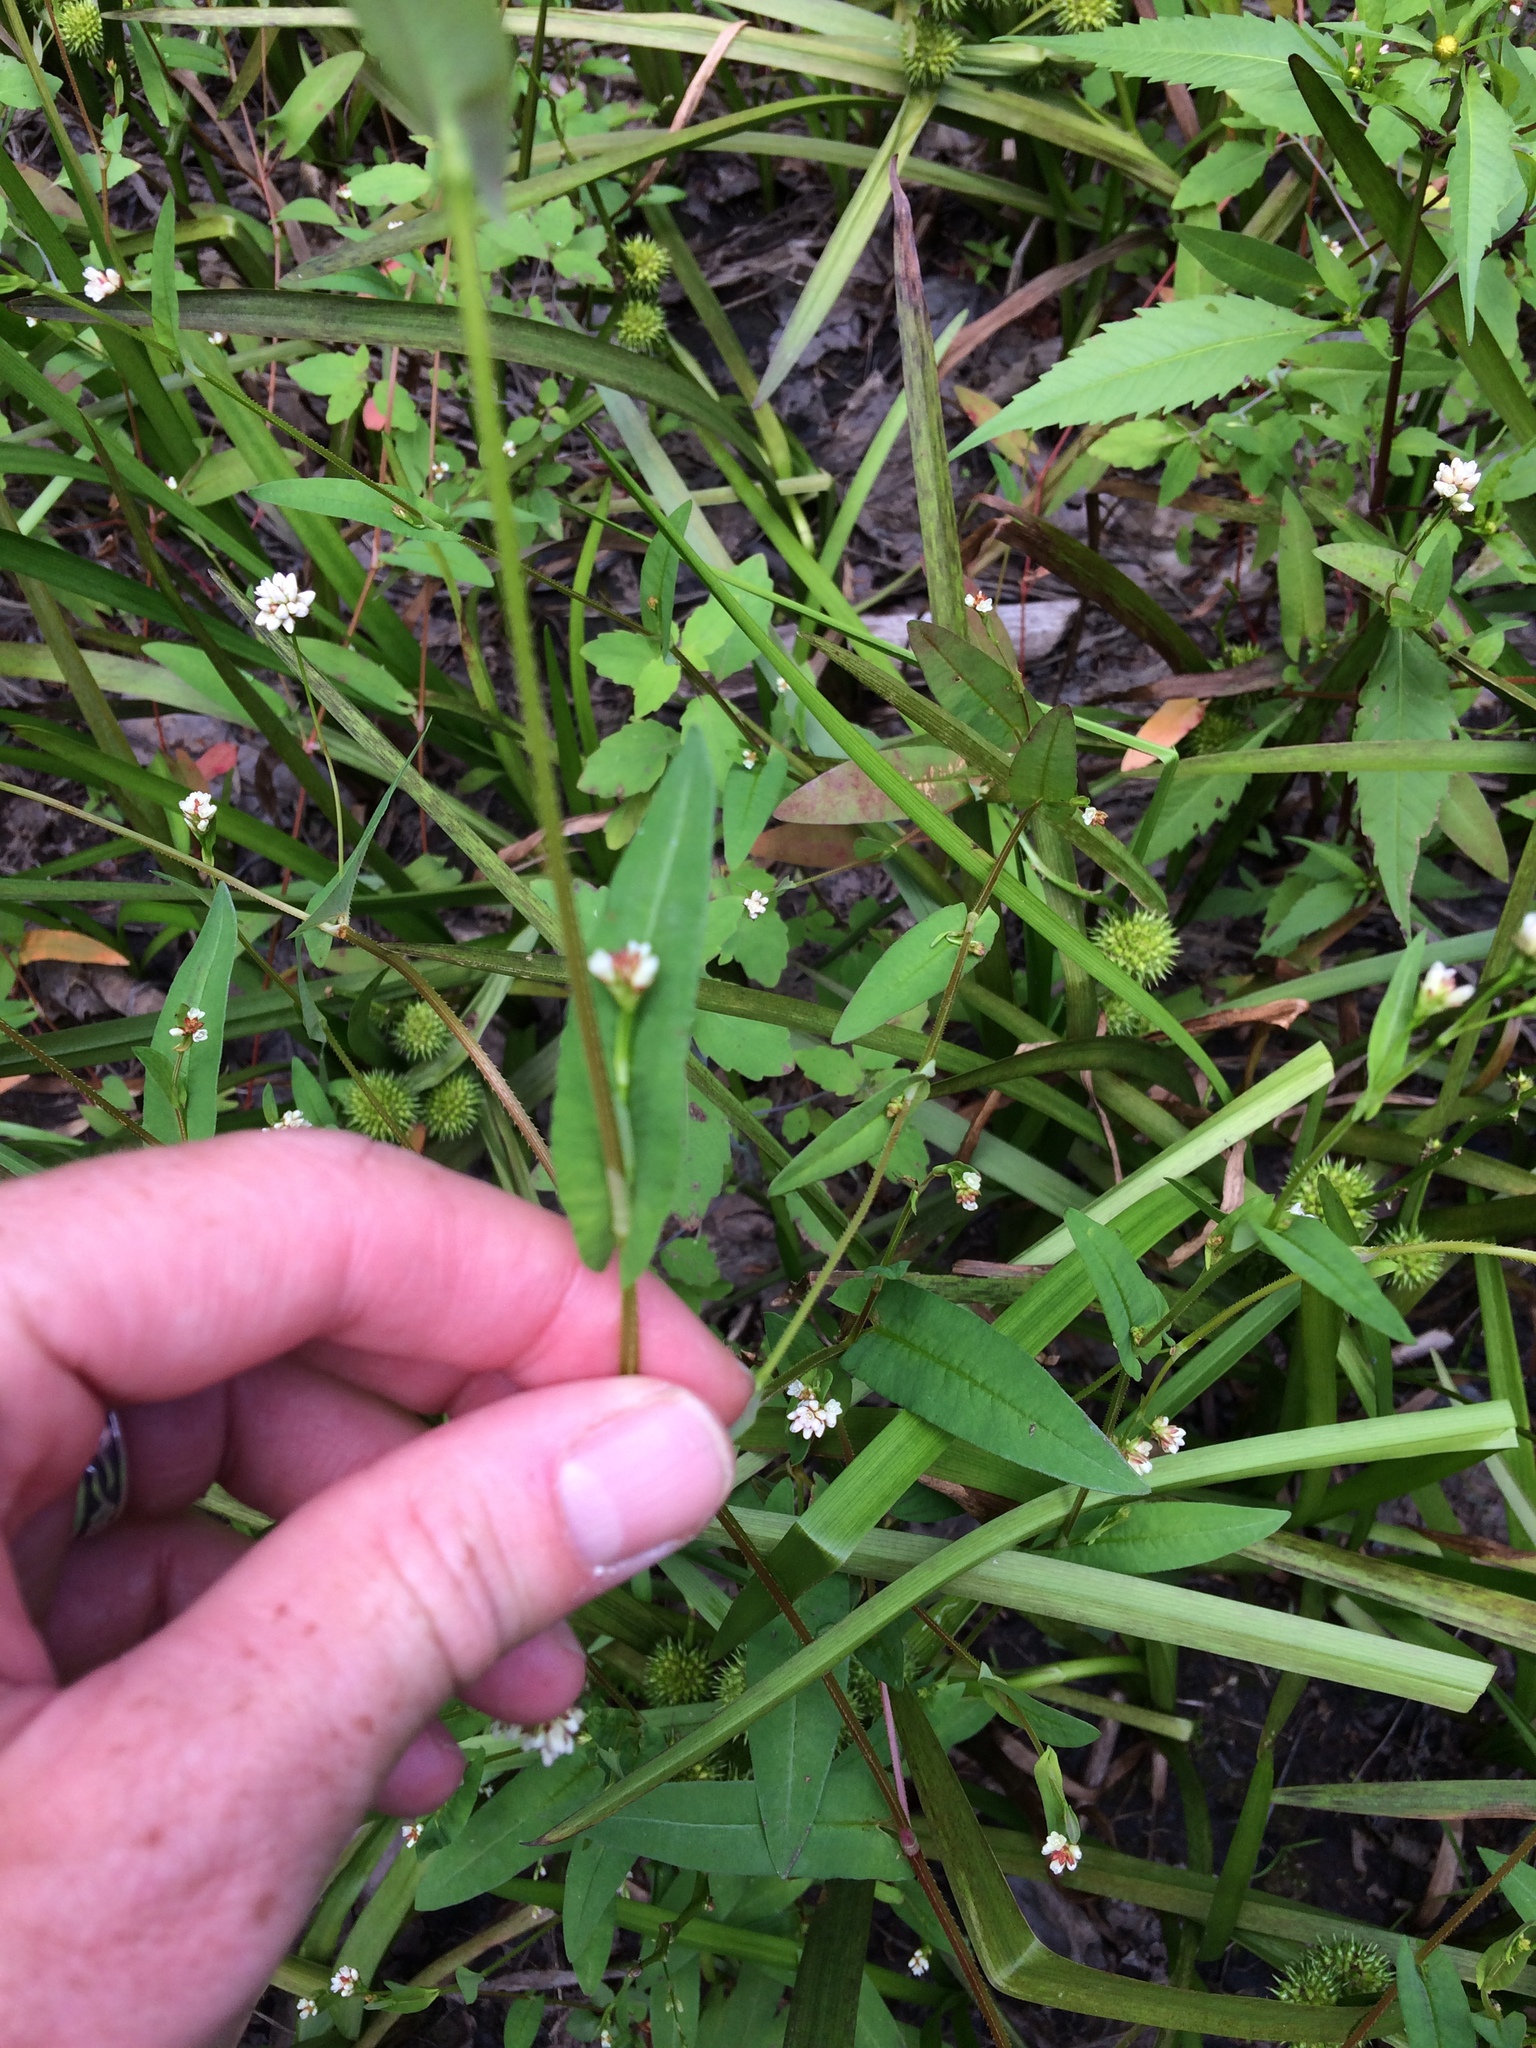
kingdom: Plantae
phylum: Tracheophyta
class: Magnoliopsida
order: Caryophyllales
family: Polygonaceae
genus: Persicaria
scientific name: Persicaria sagittata
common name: American tearthumb
